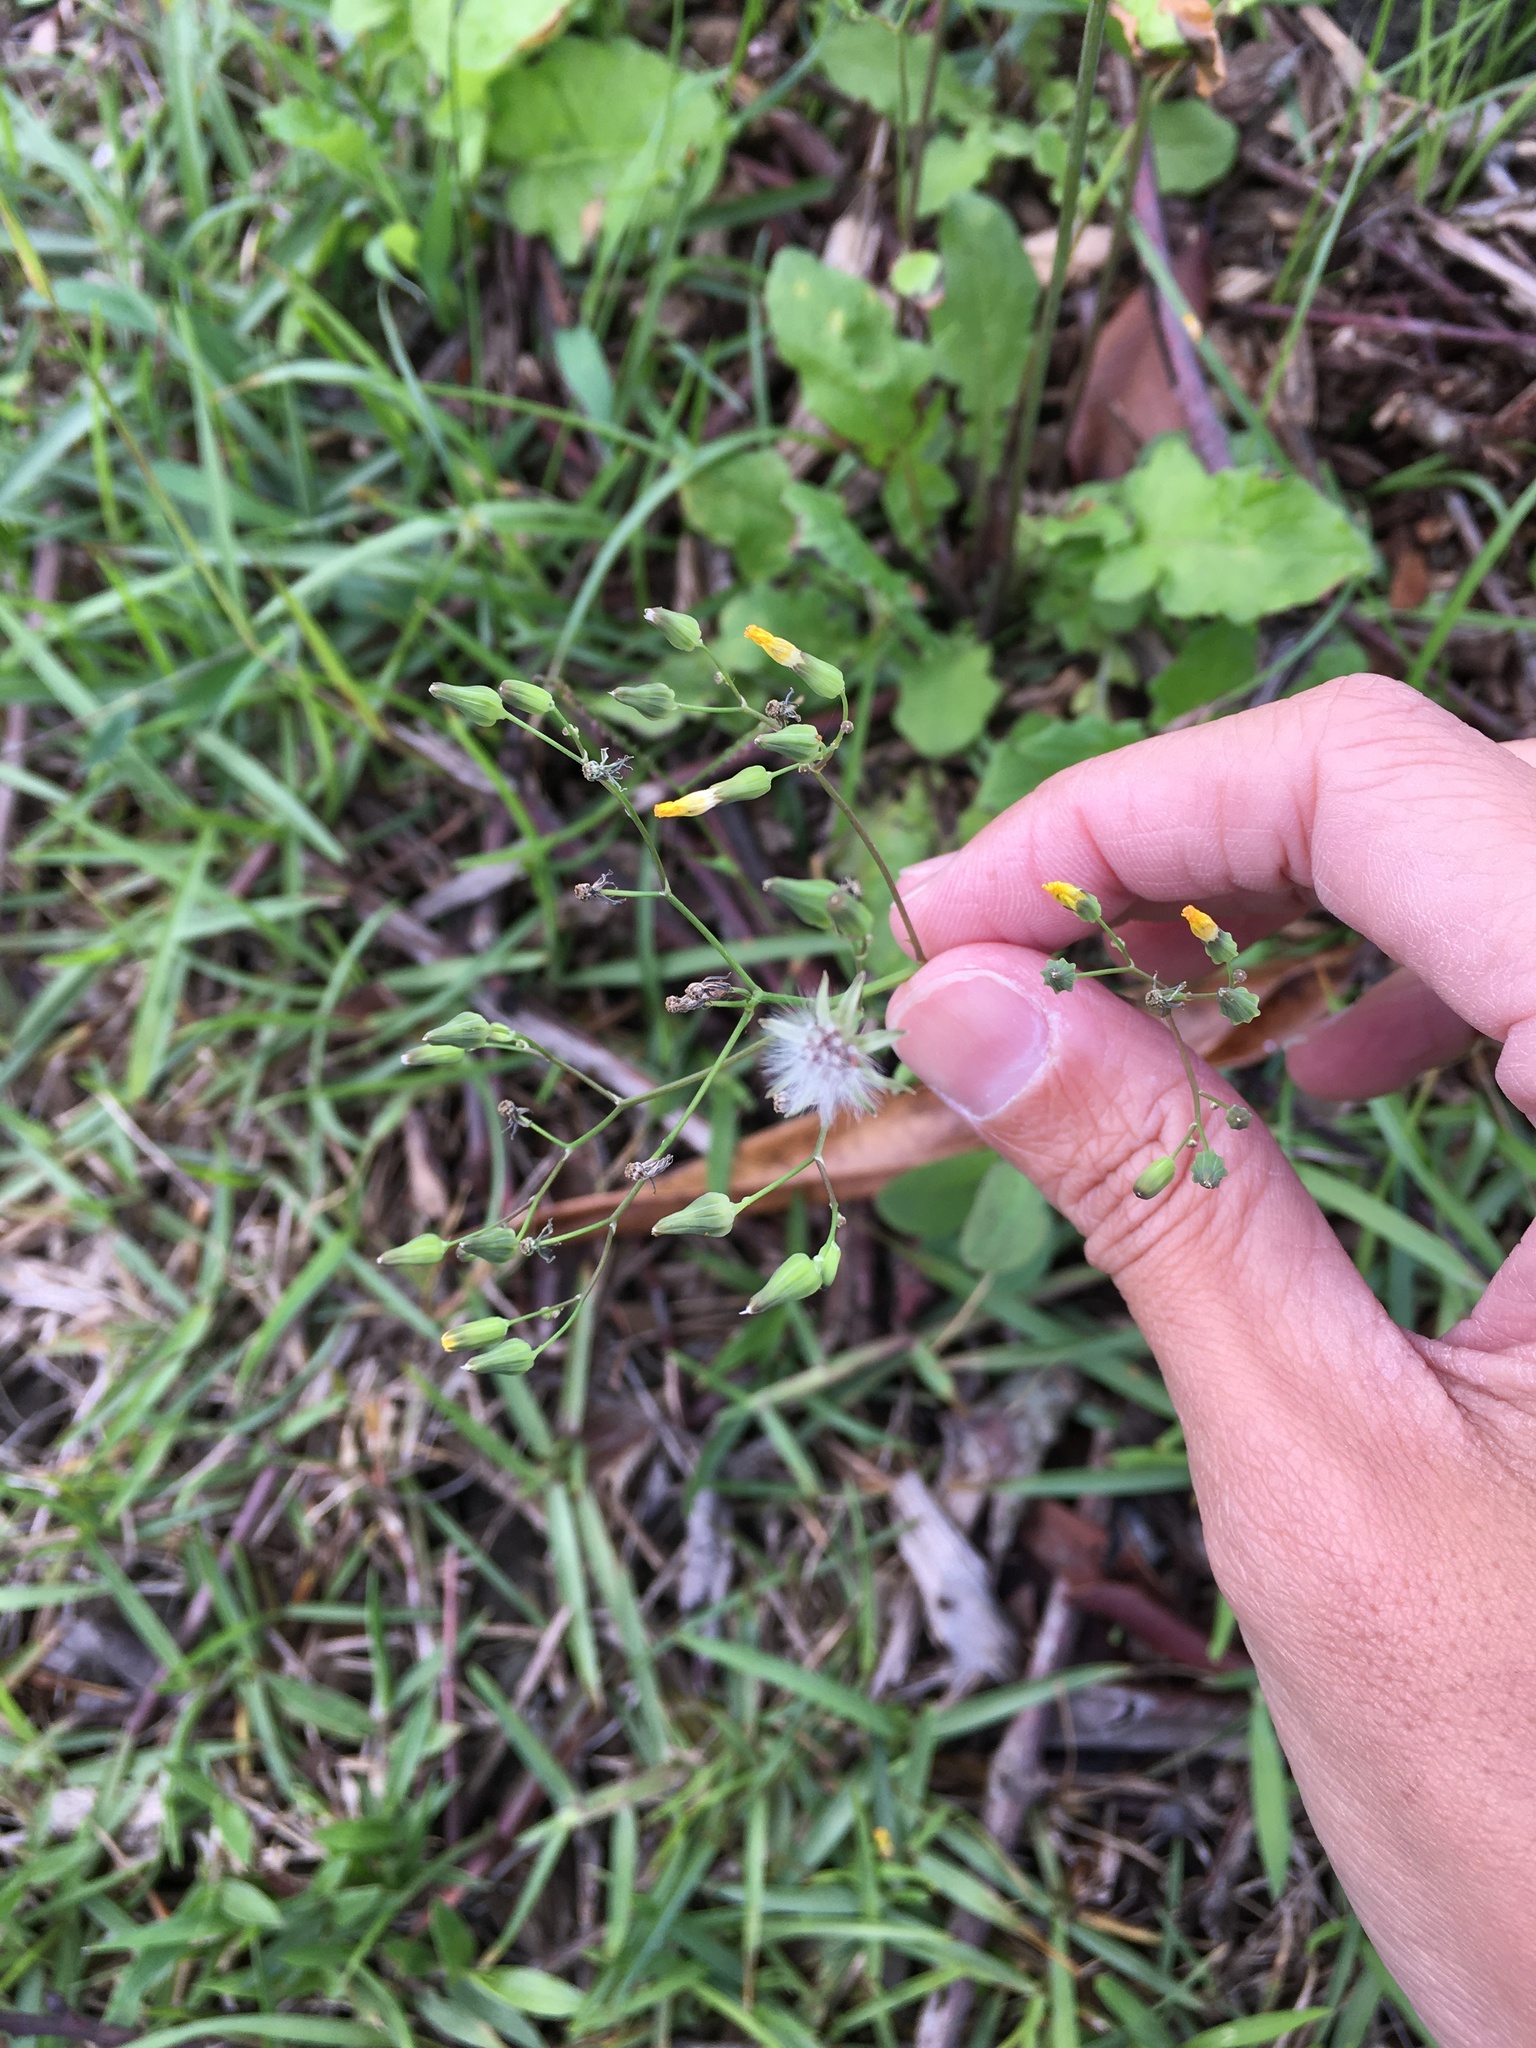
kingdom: Plantae
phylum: Tracheophyta
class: Magnoliopsida
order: Asterales
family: Asteraceae
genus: Youngia
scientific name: Youngia japonica
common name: Oriental false hawksbeard
